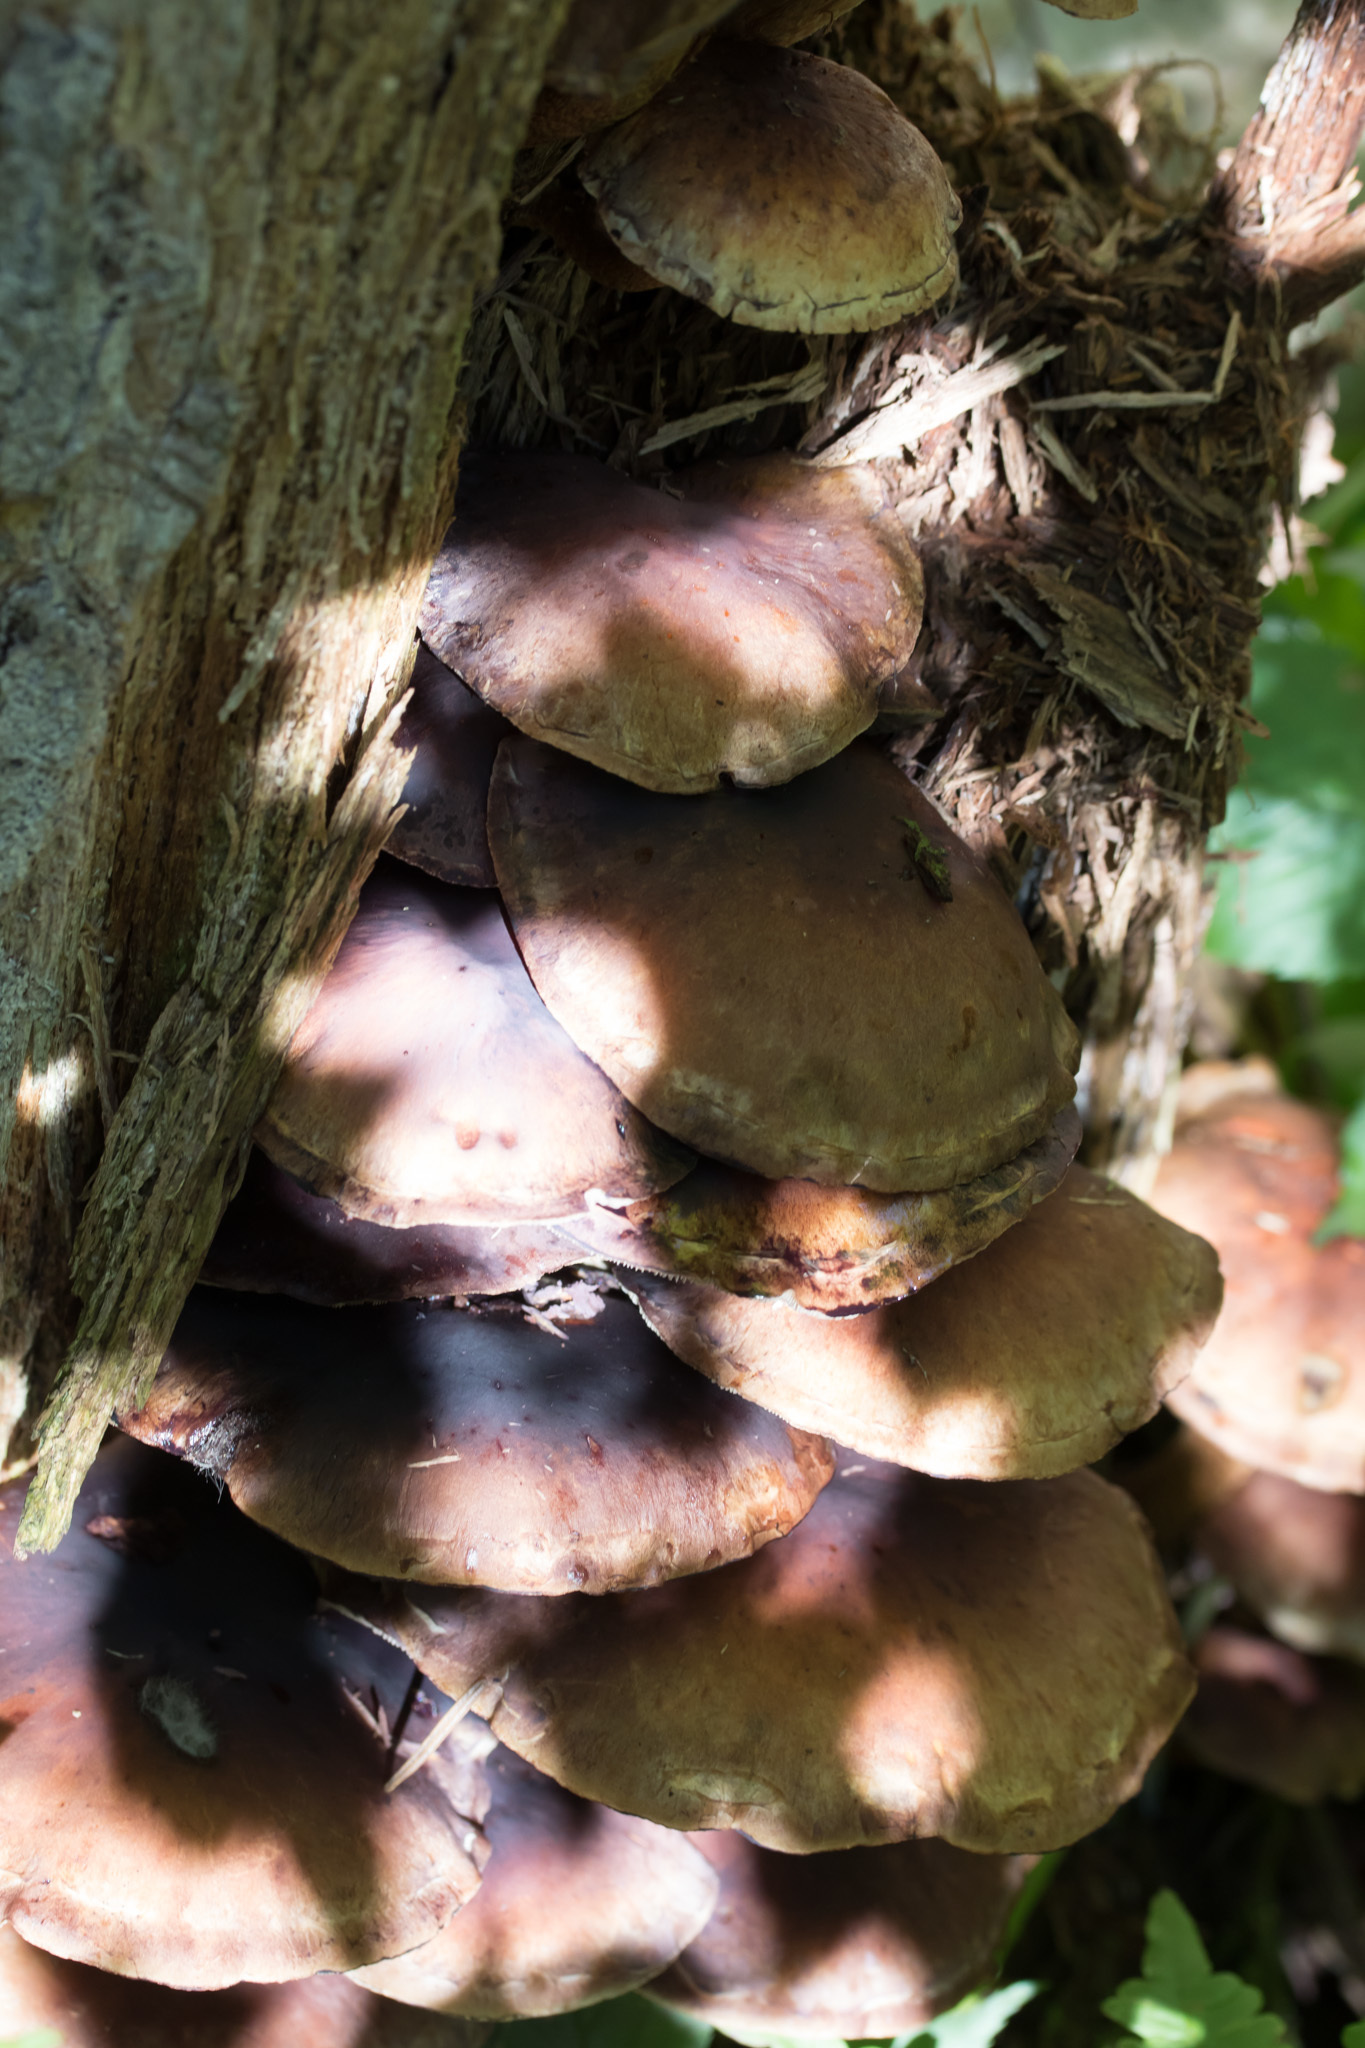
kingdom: Fungi
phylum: Basidiomycota
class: Agaricomycetes
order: Agaricales
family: Strophariaceae
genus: Hypholoma
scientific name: Hypholoma lateritium
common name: Brick caps
